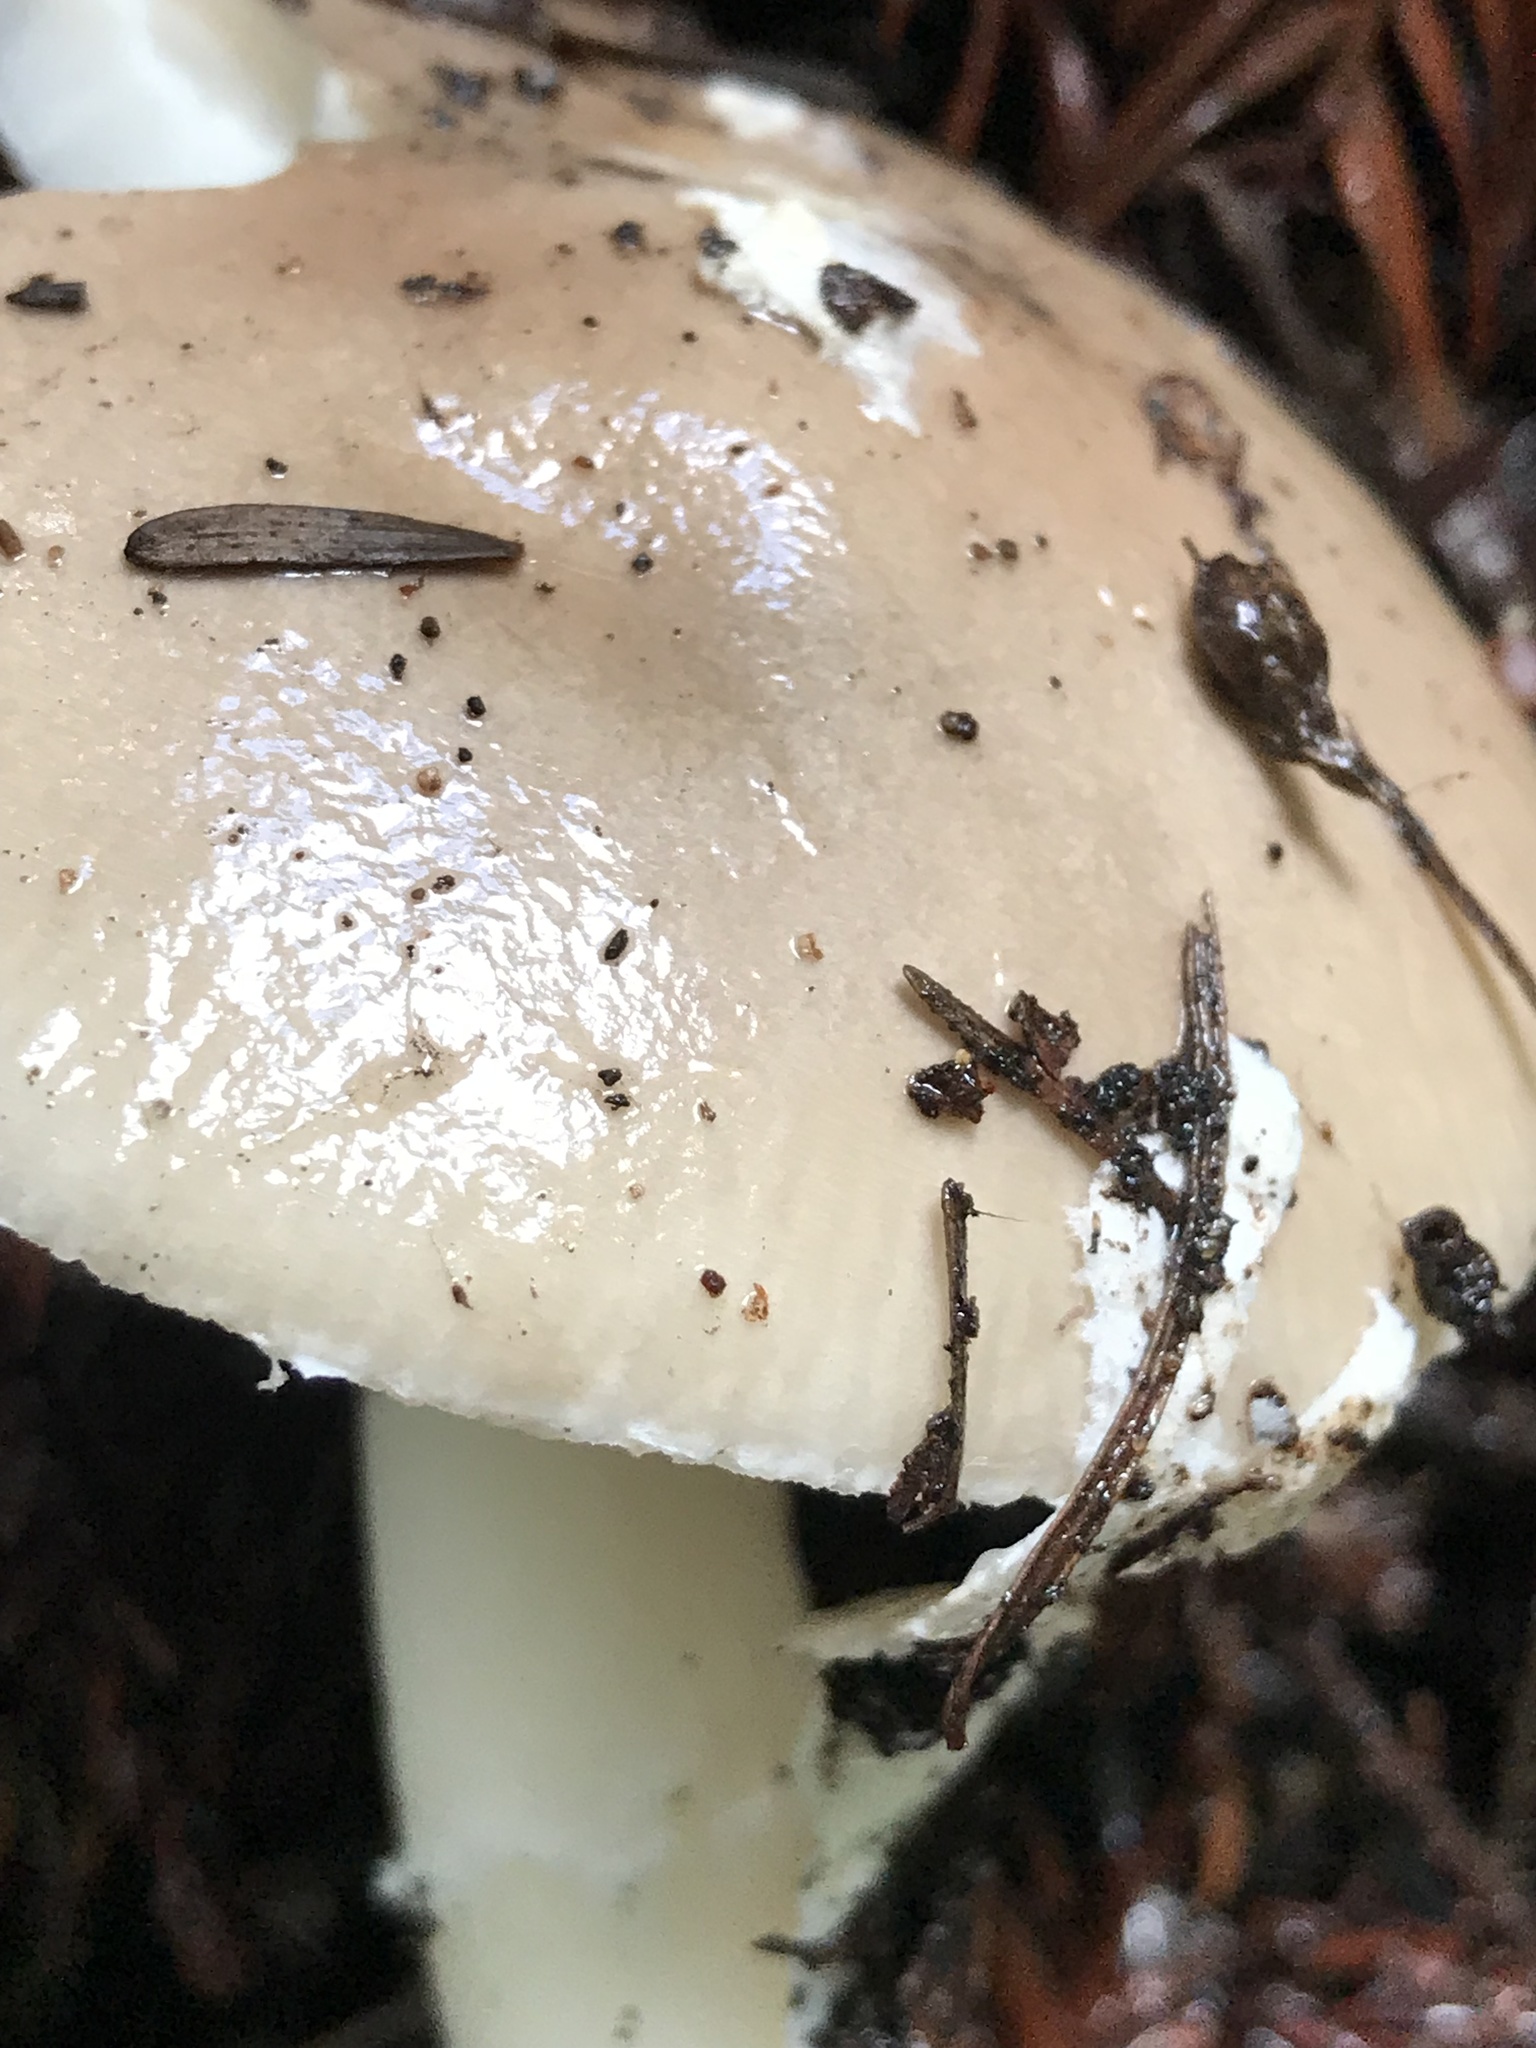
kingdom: Fungi
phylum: Basidiomycota
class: Agaricomycetes
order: Agaricales
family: Amanitaceae
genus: Amanita
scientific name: Amanita calyptratoides
